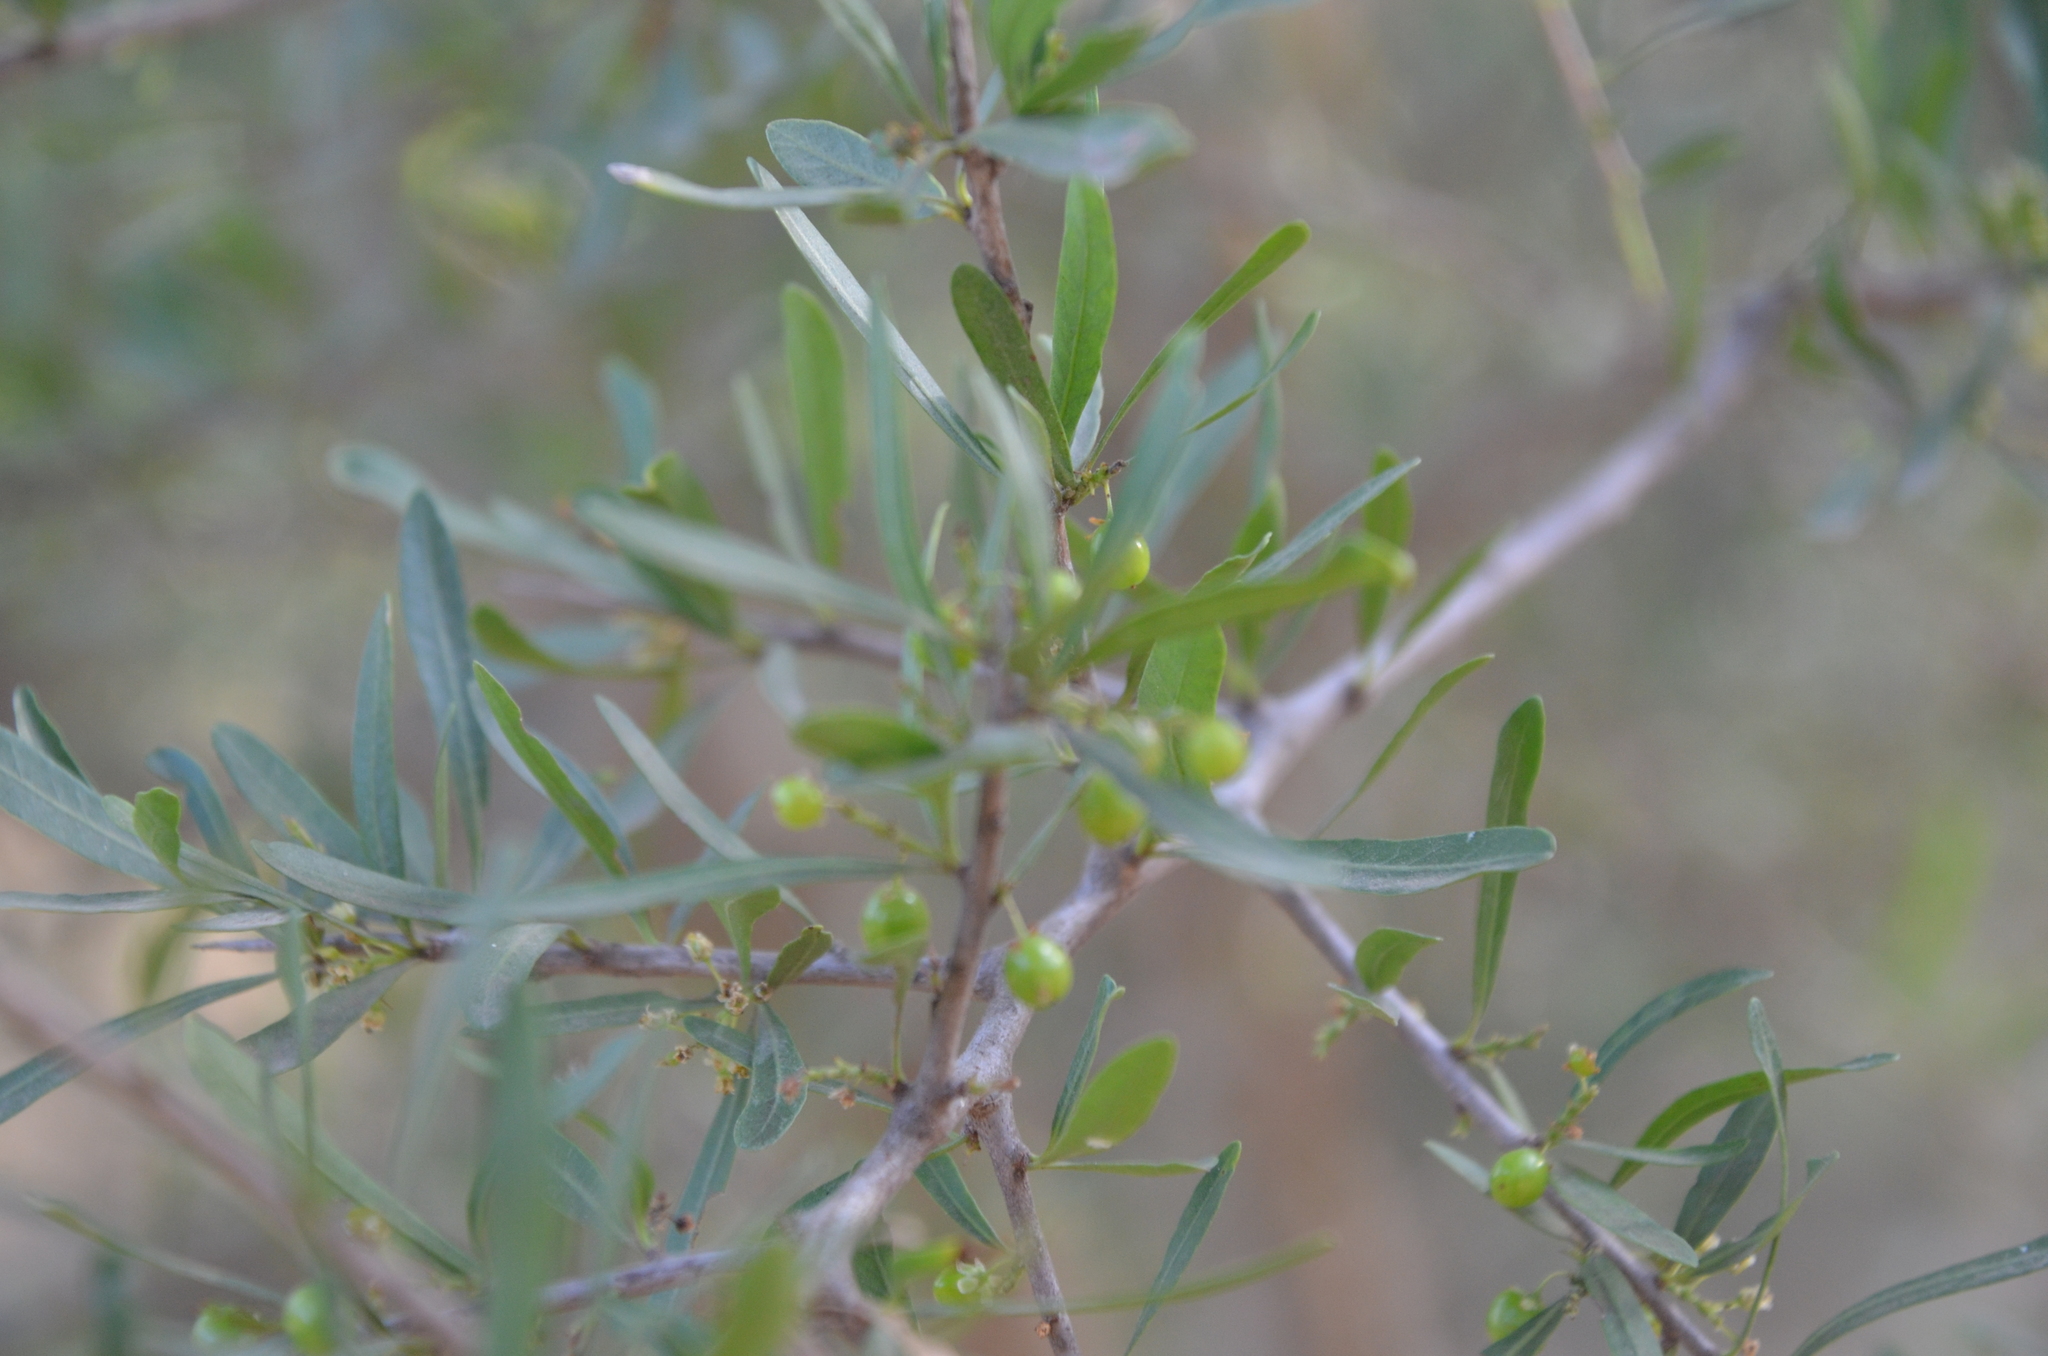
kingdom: Plantae
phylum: Tracheophyta
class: Magnoliopsida
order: Sapindales
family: Anacardiaceae
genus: Schinus
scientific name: Schinus longifolia
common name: Longleaf peppertree
